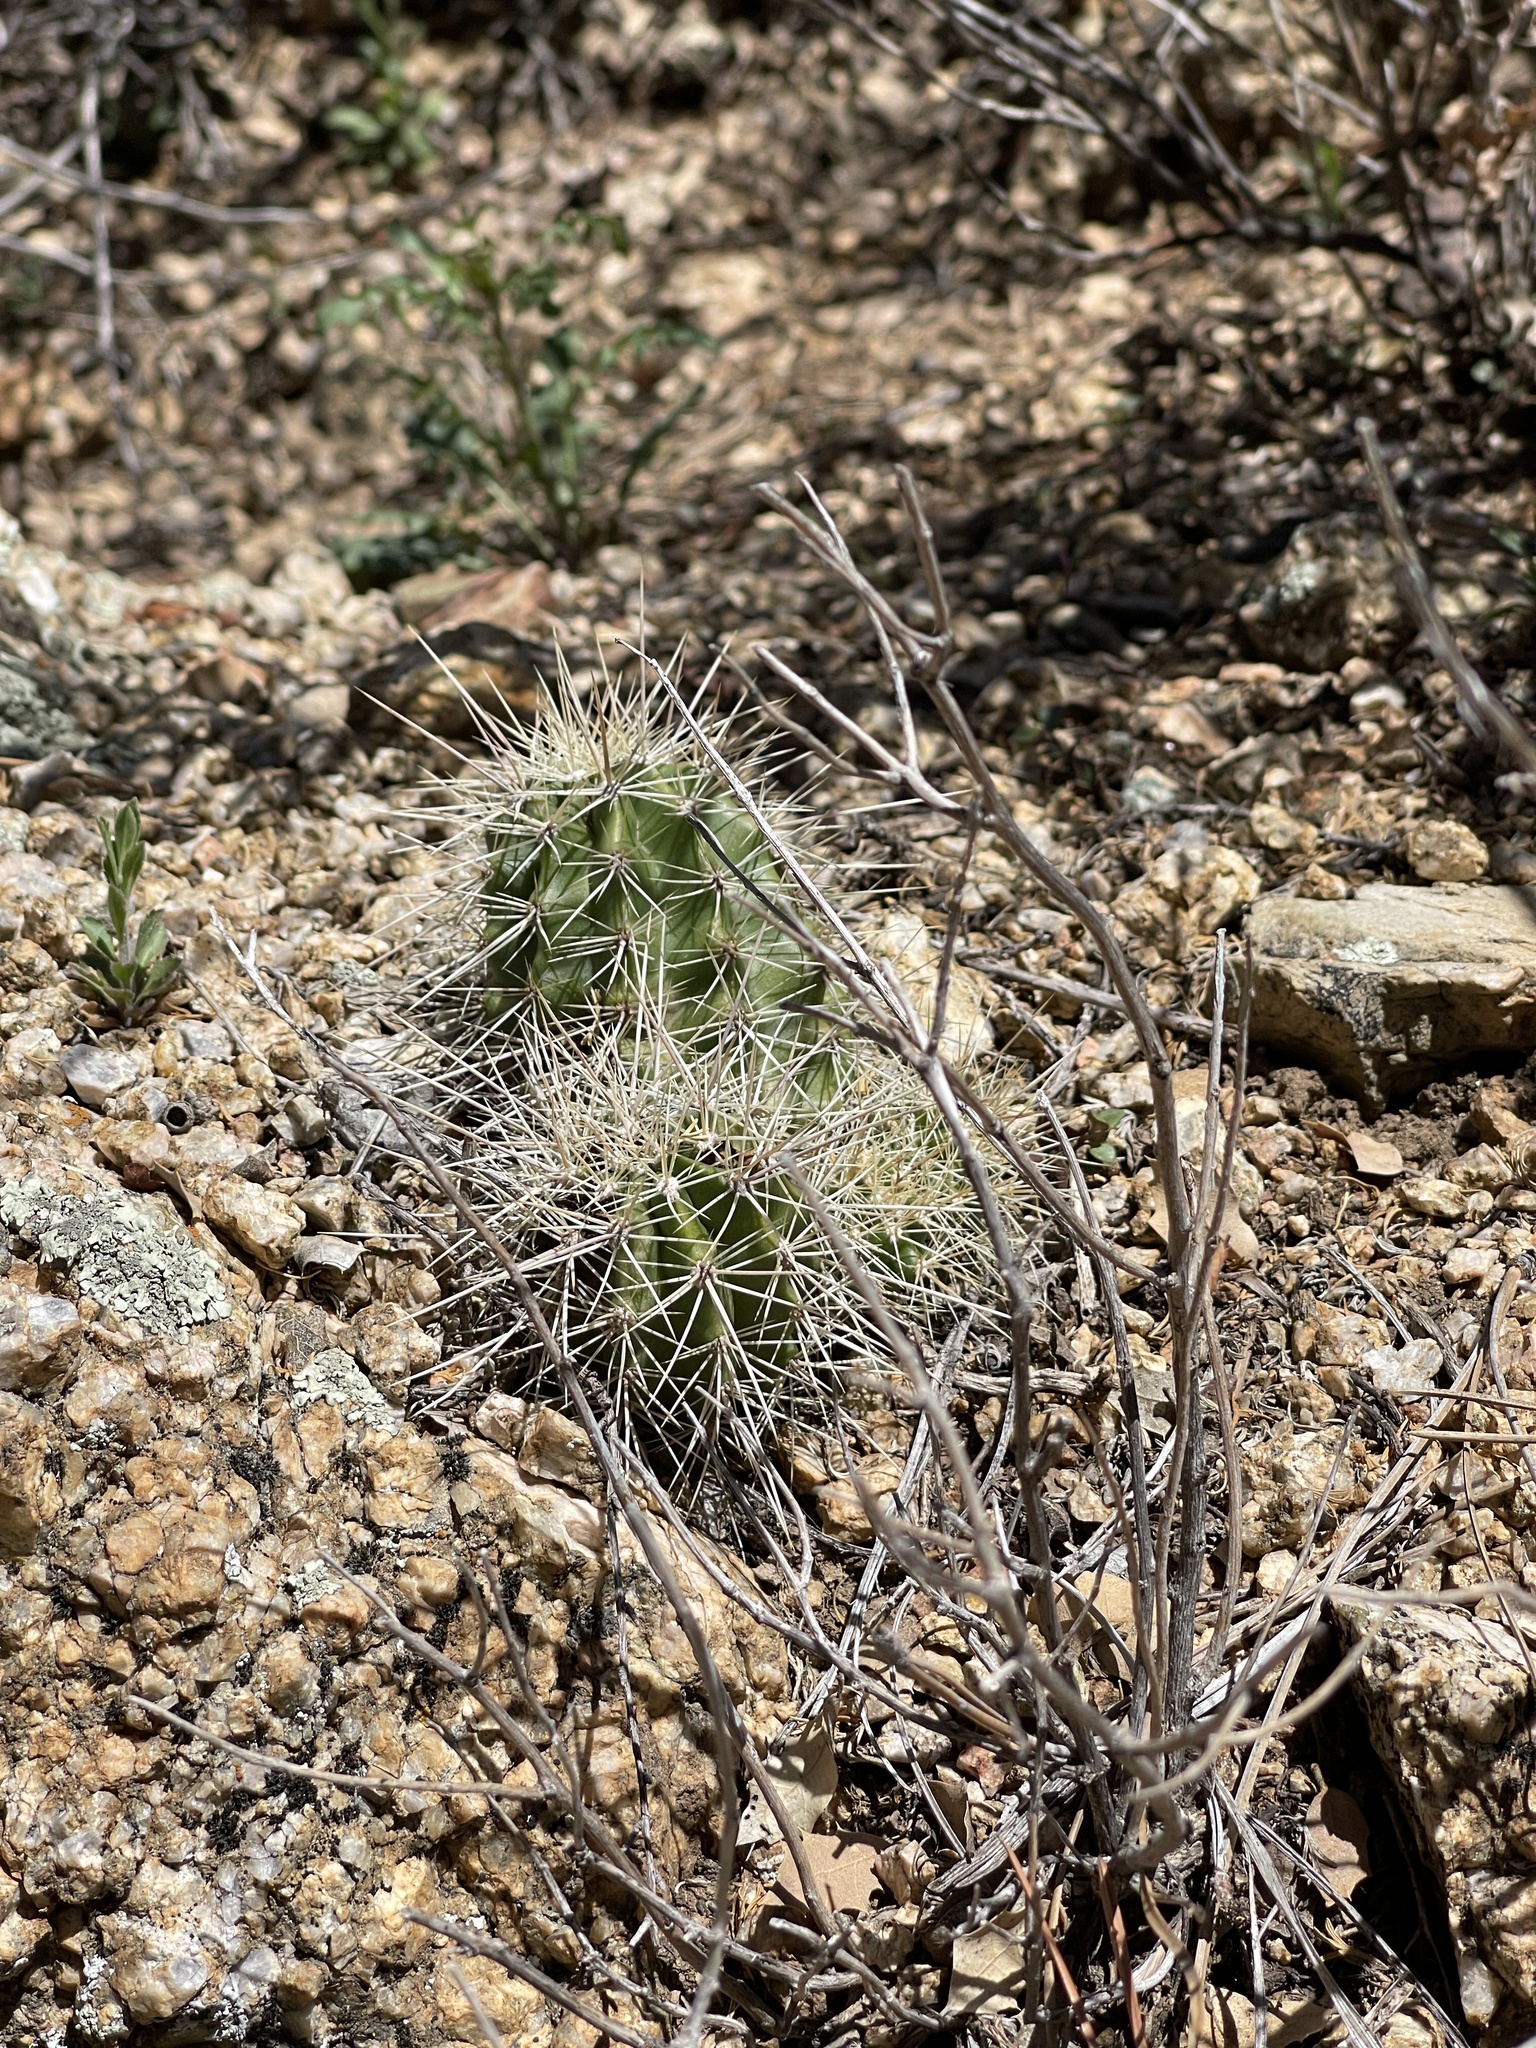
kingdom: Plantae
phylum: Tracheophyta
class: Magnoliopsida
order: Caryophyllales
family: Cactaceae
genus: Echinocereus
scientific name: Echinocereus bakeri
